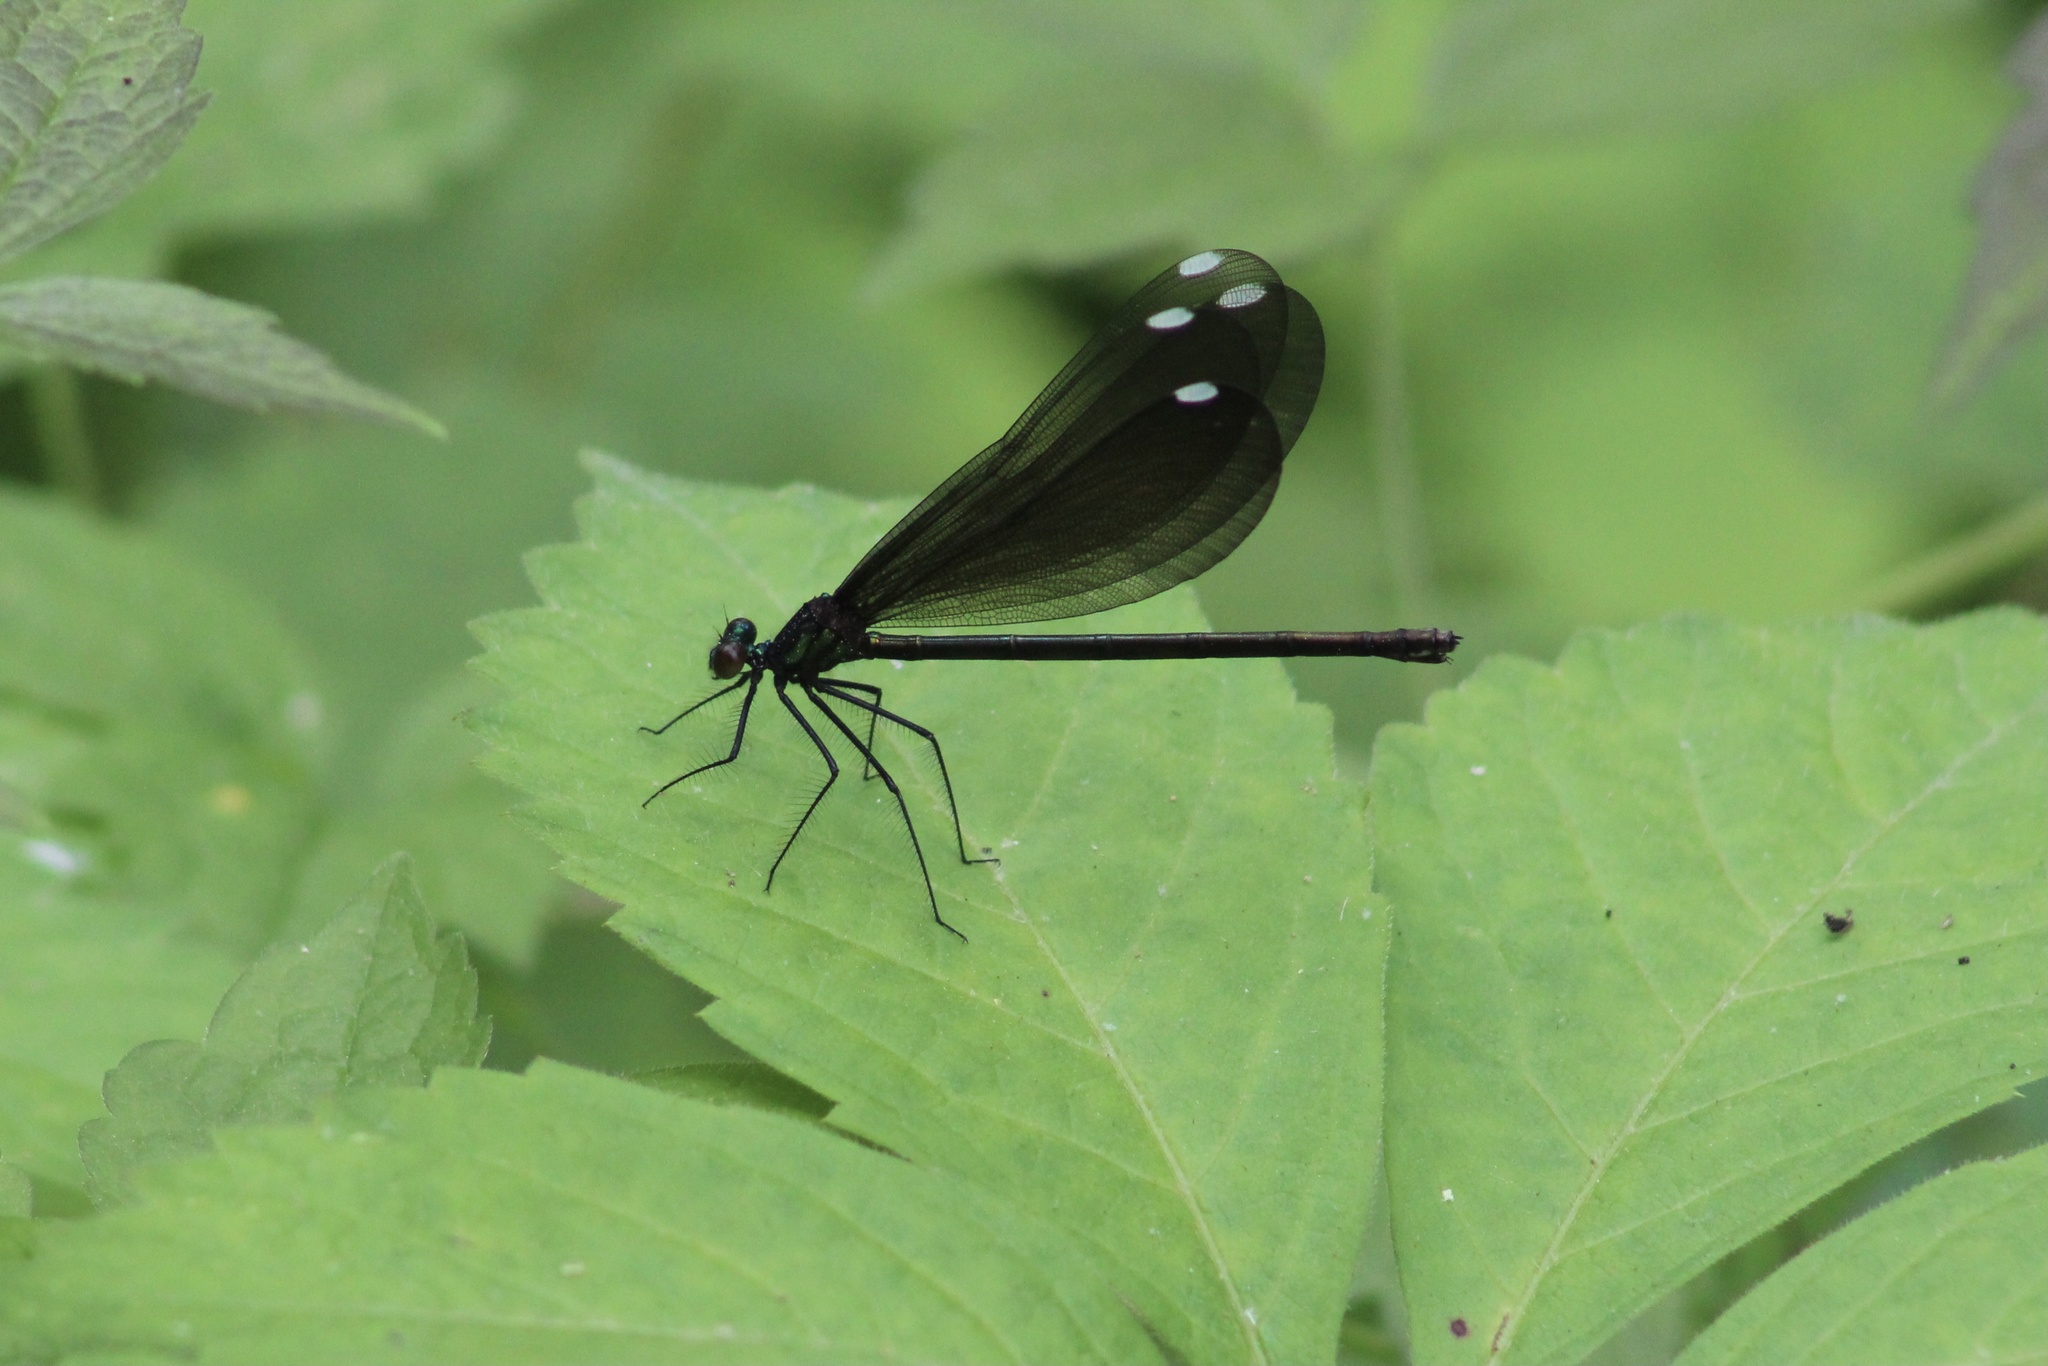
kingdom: Animalia
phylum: Arthropoda
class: Insecta
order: Odonata
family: Calopterygidae
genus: Calopteryx
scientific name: Calopteryx maculata
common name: Ebony jewelwing
